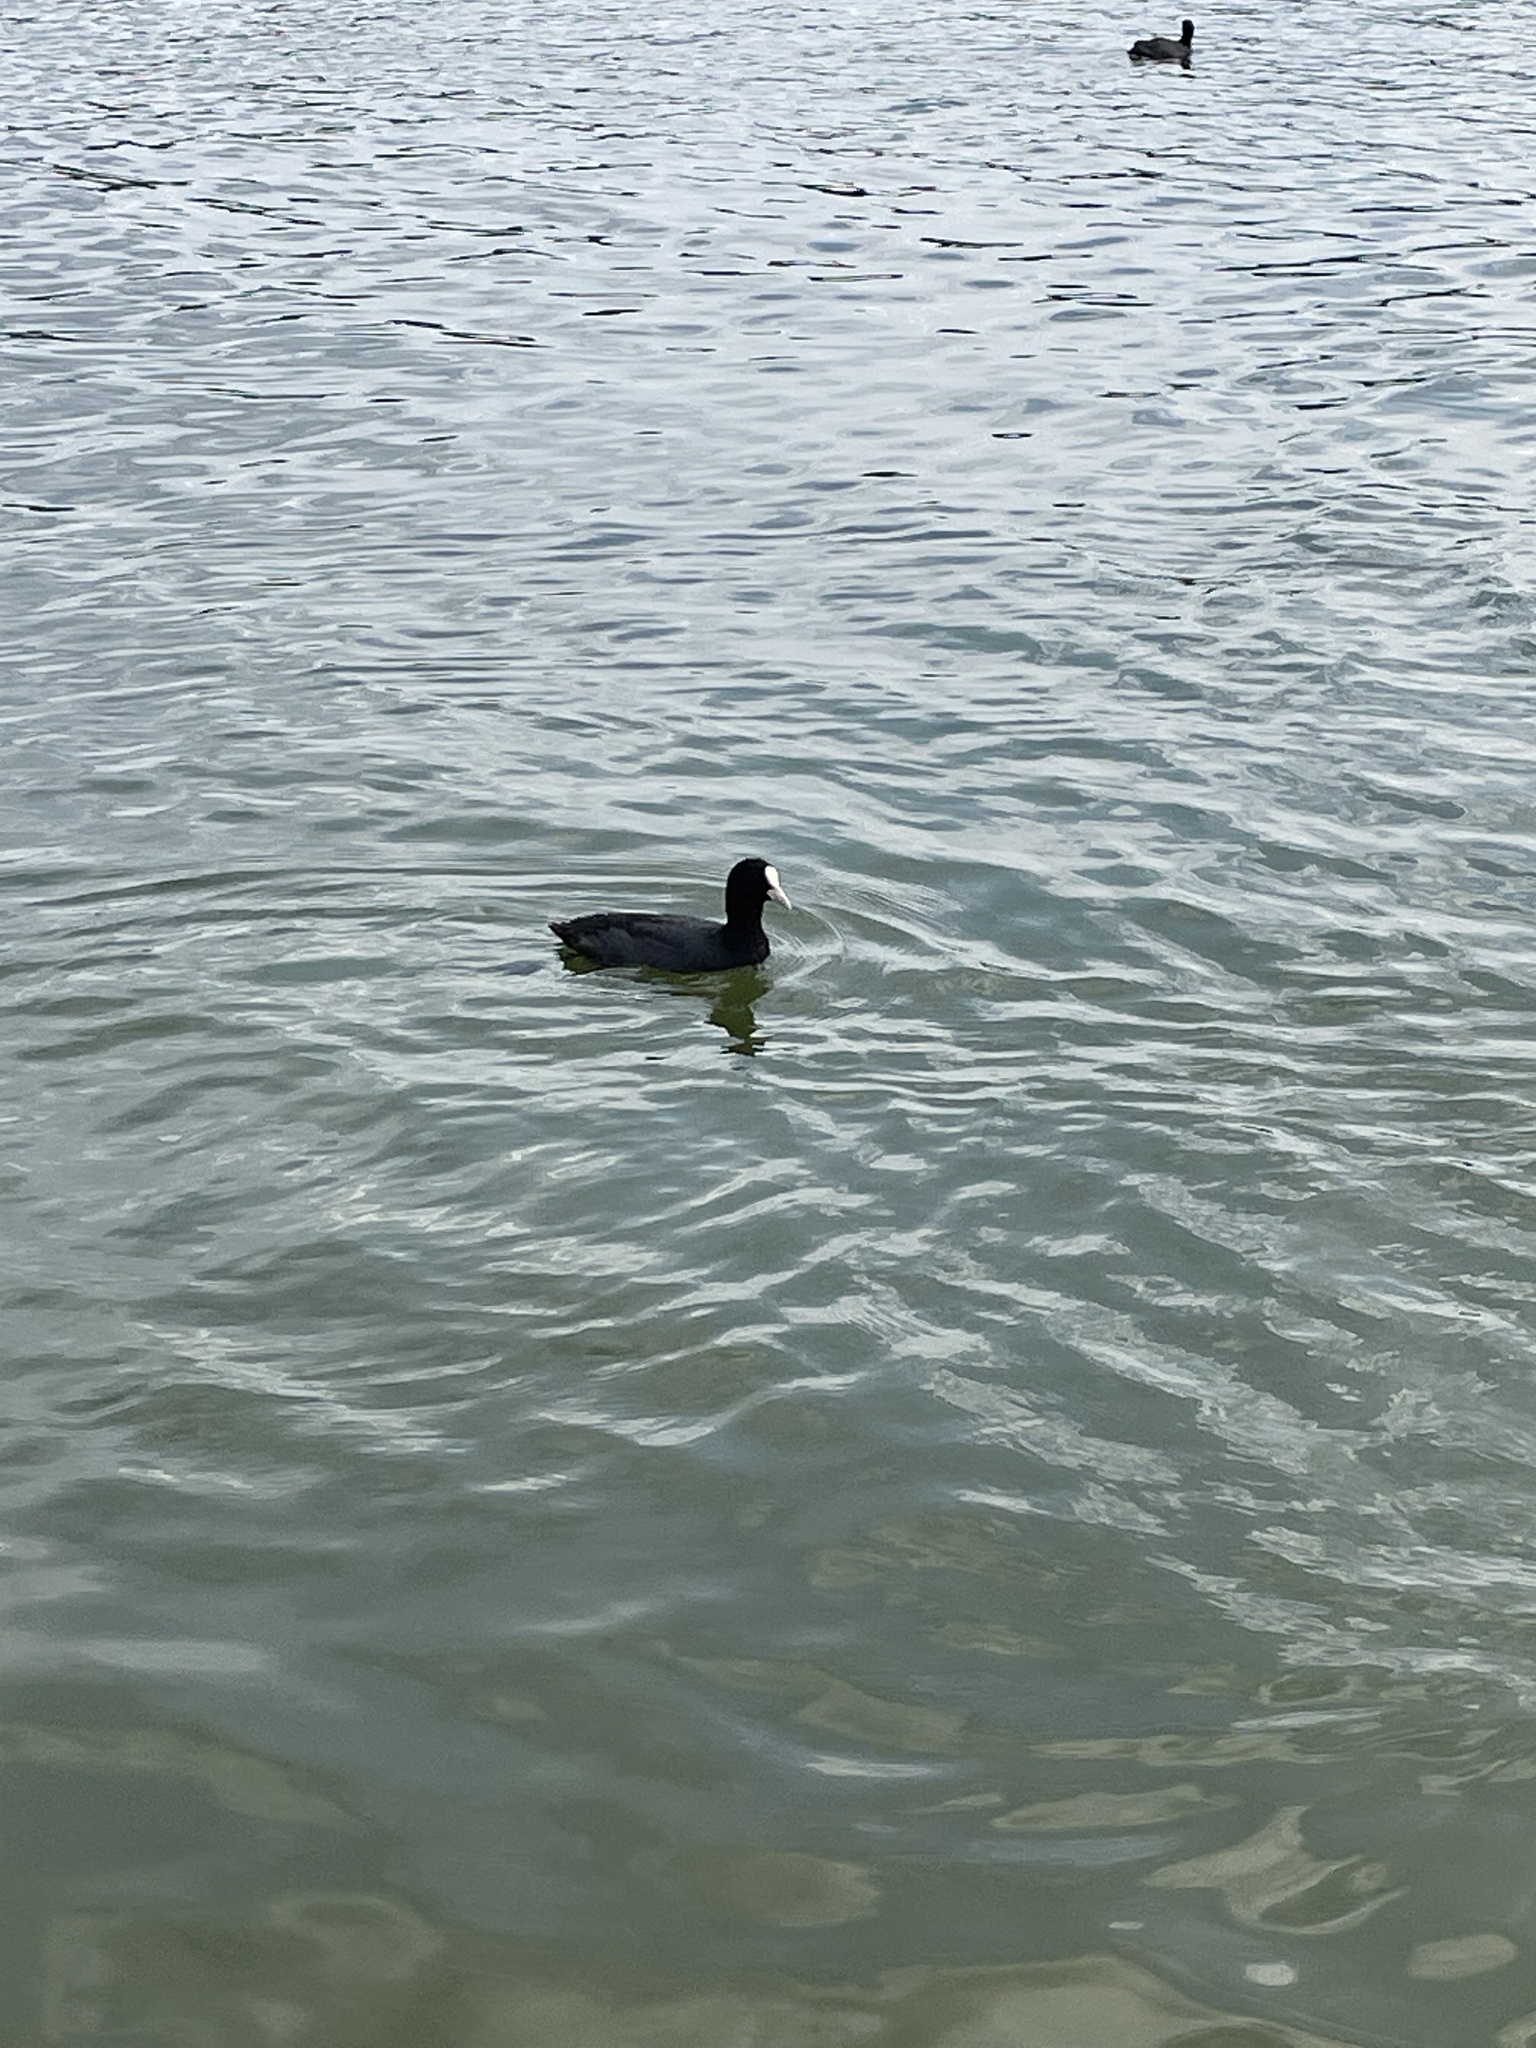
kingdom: Animalia
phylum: Chordata
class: Aves
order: Gruiformes
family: Rallidae
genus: Fulica
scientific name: Fulica atra
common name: Eurasian coot
